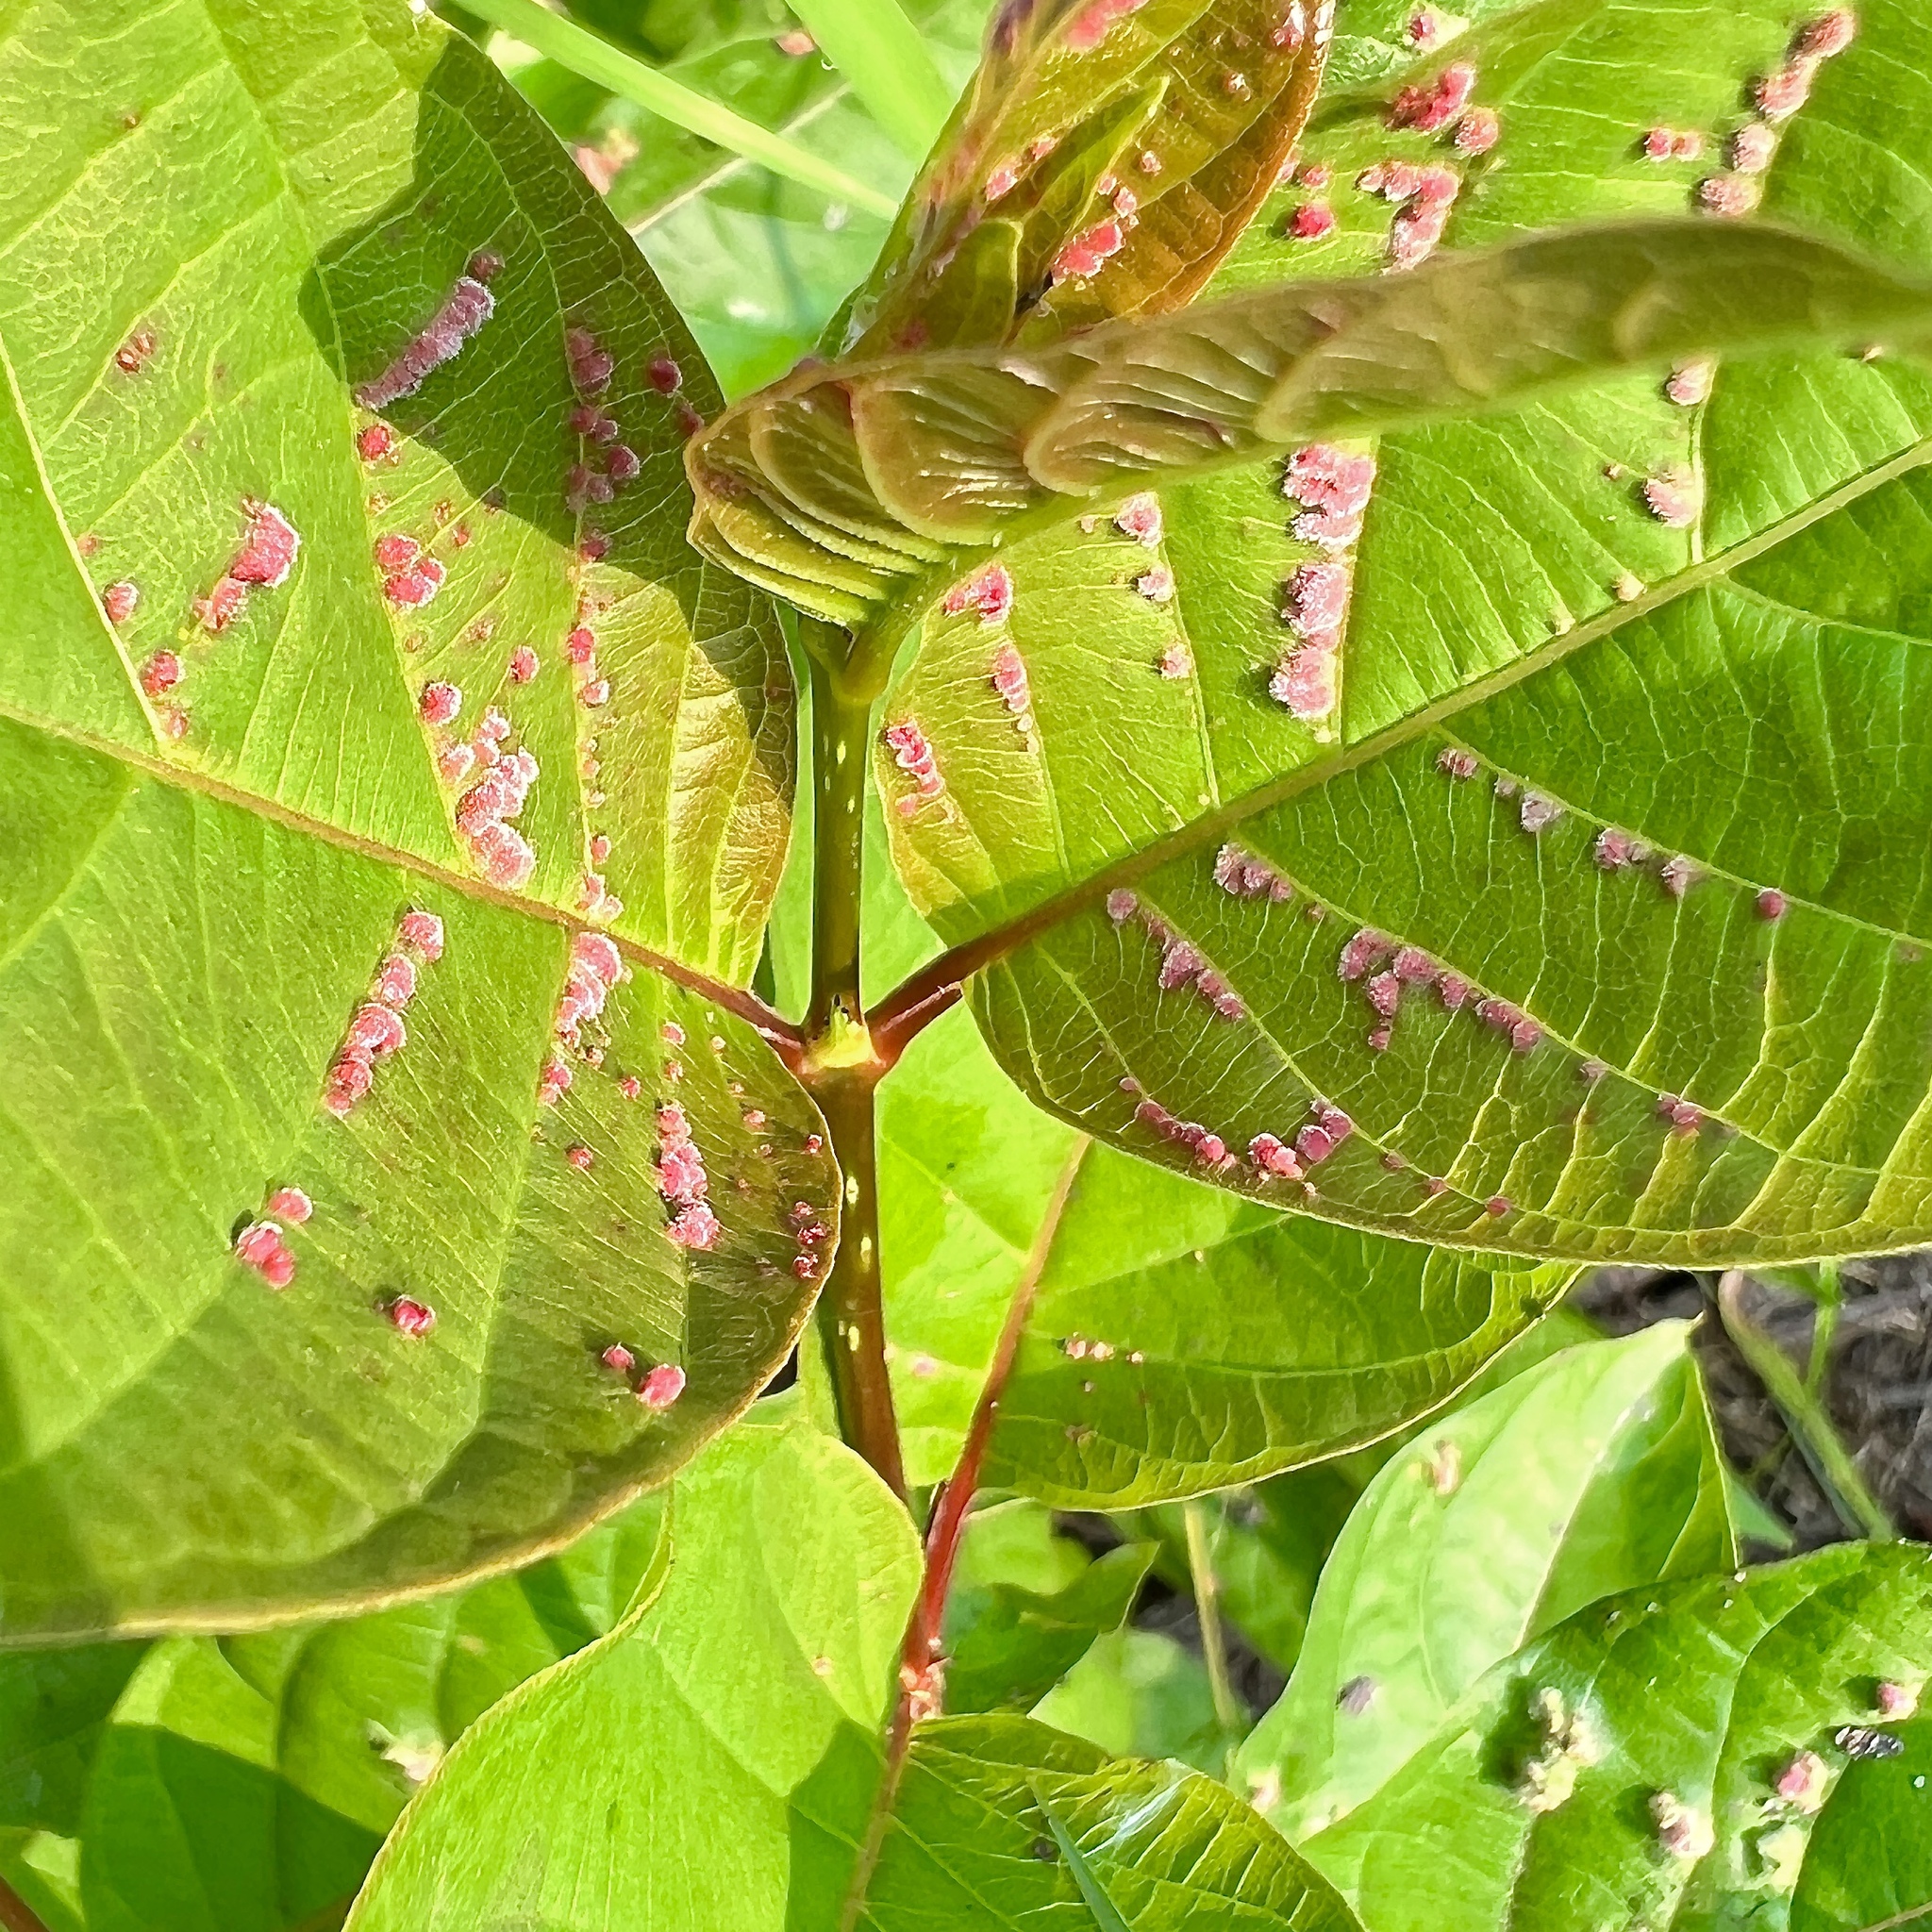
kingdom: Animalia
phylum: Arthropoda
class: Arachnida
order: Trombidiformes
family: Eriophyidae
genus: Aceria
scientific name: Aceria
